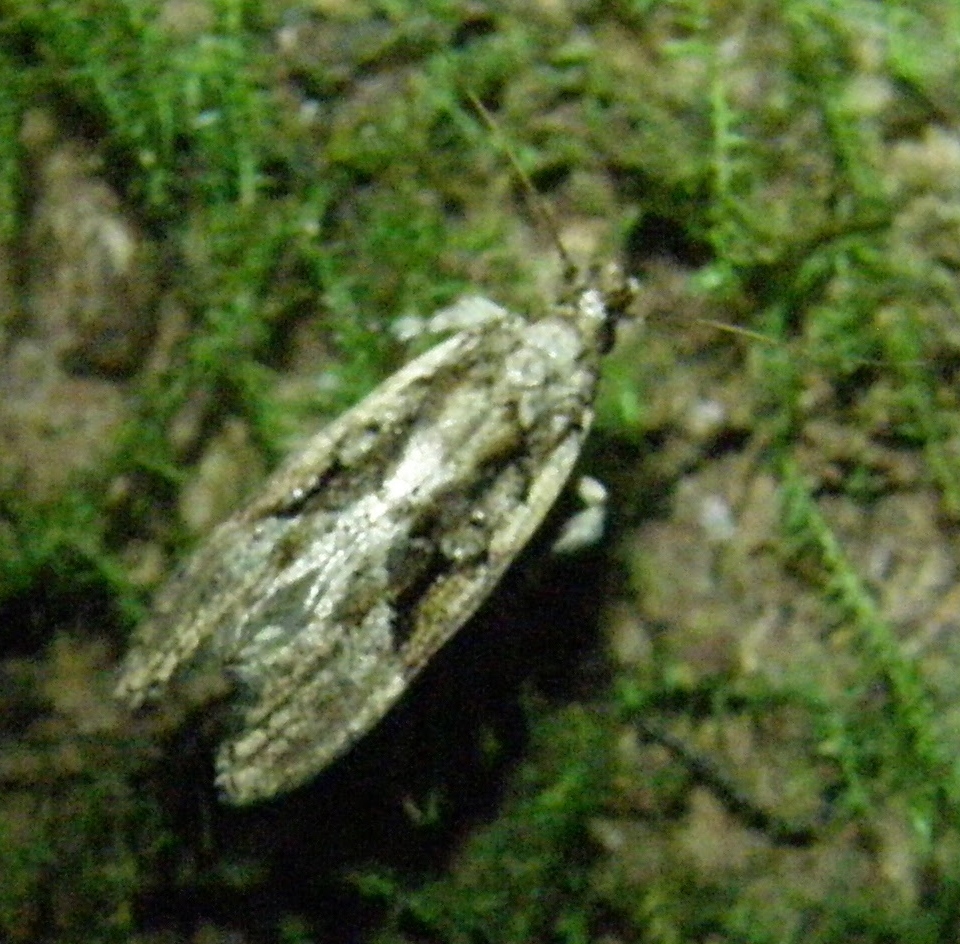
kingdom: Animalia
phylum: Arthropoda
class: Insecta
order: Lepidoptera
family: Cosmopterigidae
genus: Diplosara
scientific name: Diplosara lignivora
